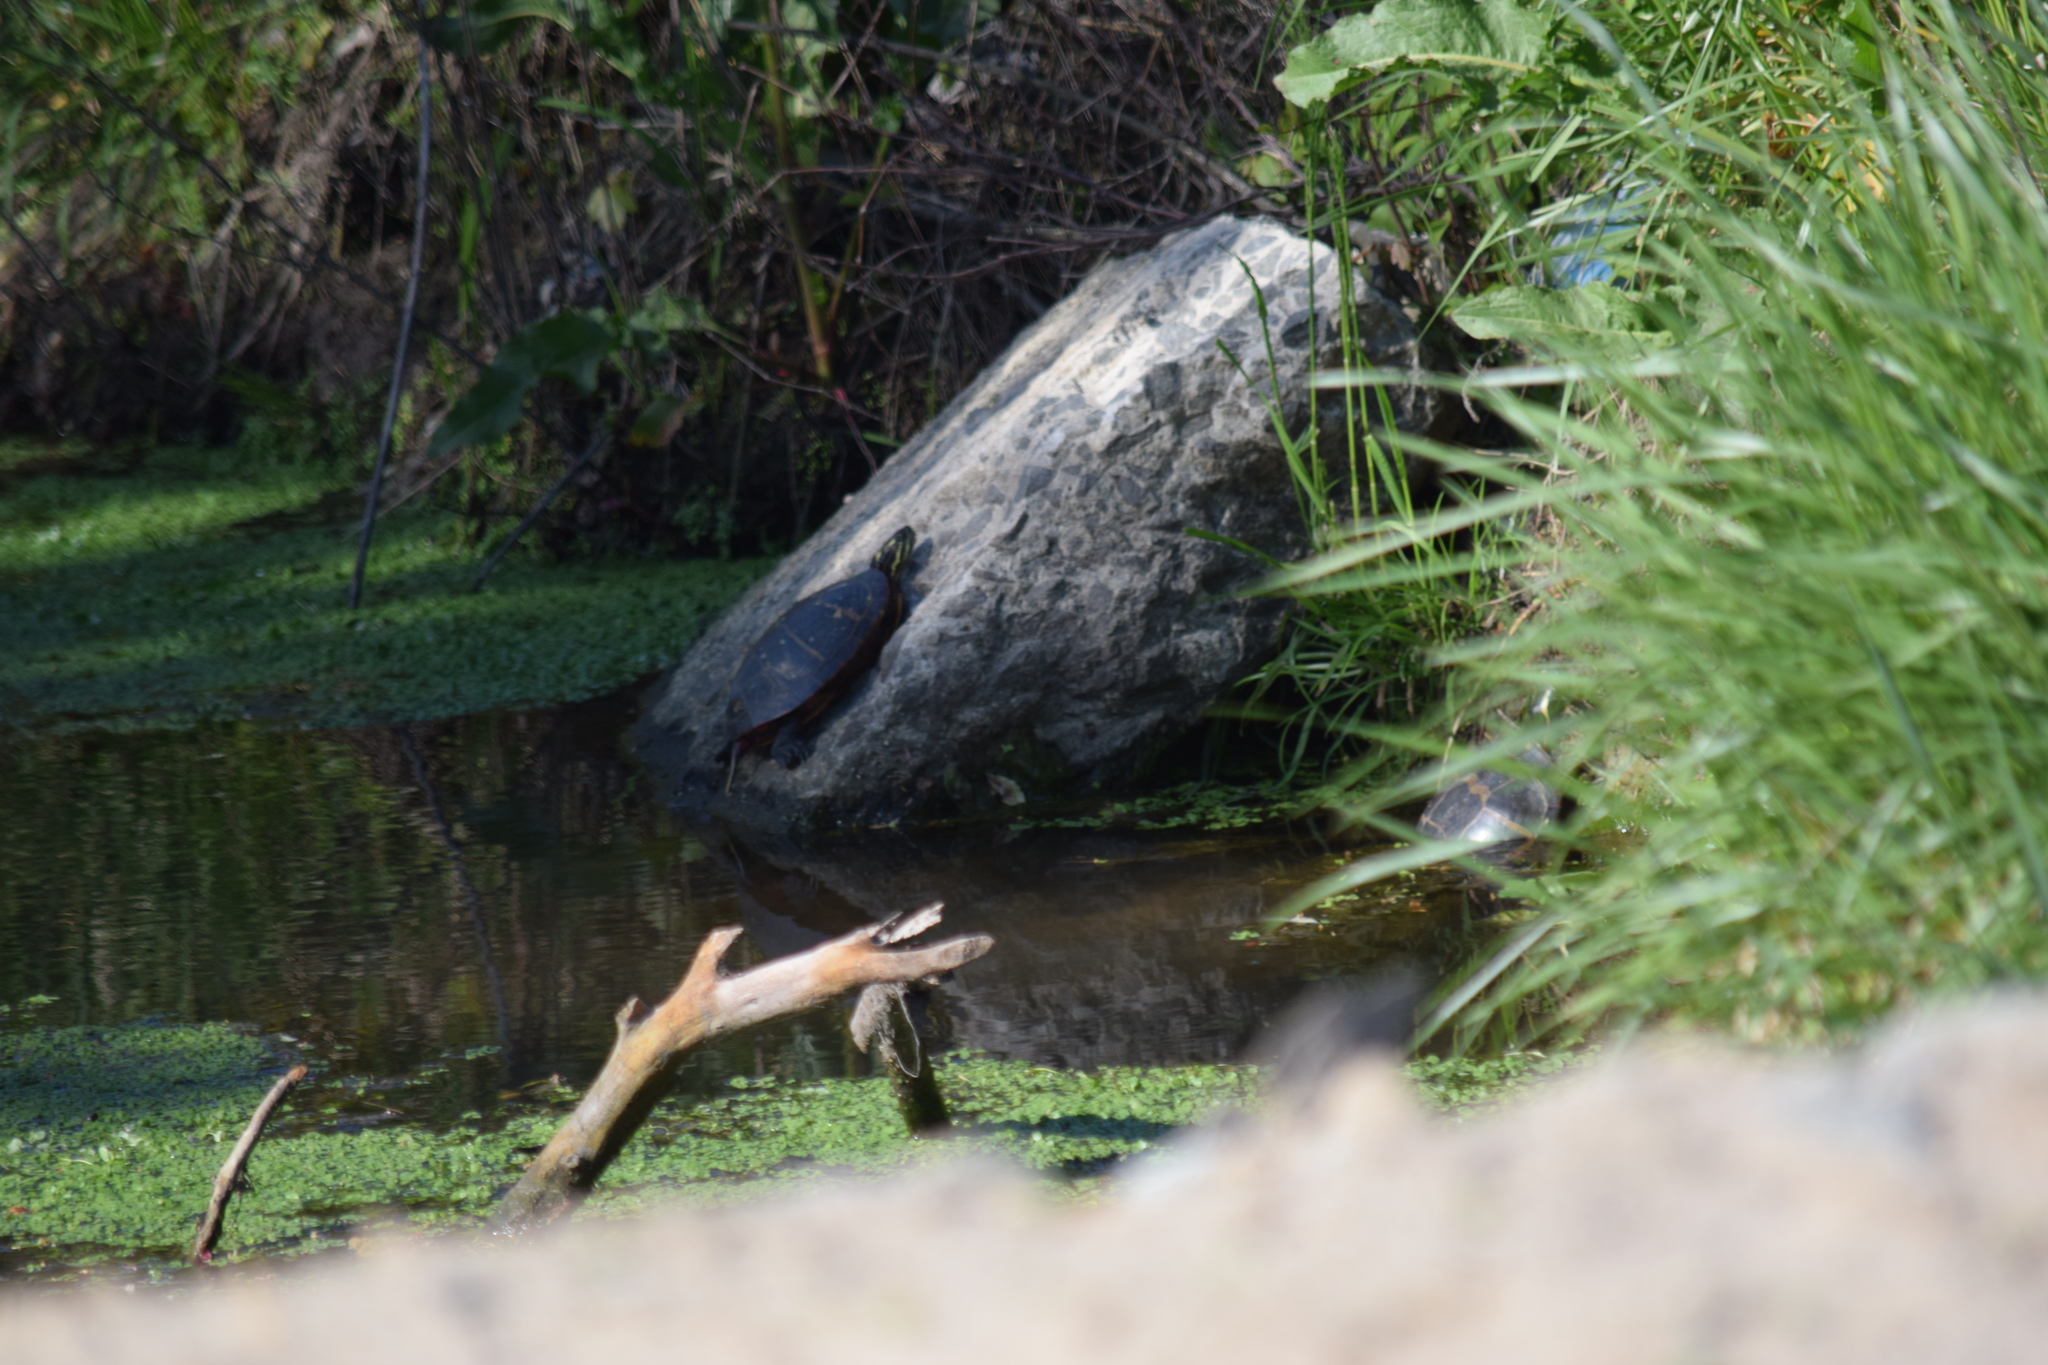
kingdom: Animalia
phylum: Chordata
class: Testudines
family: Emydidae
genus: Chrysemys
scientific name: Chrysemys picta
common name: Painted turtle
